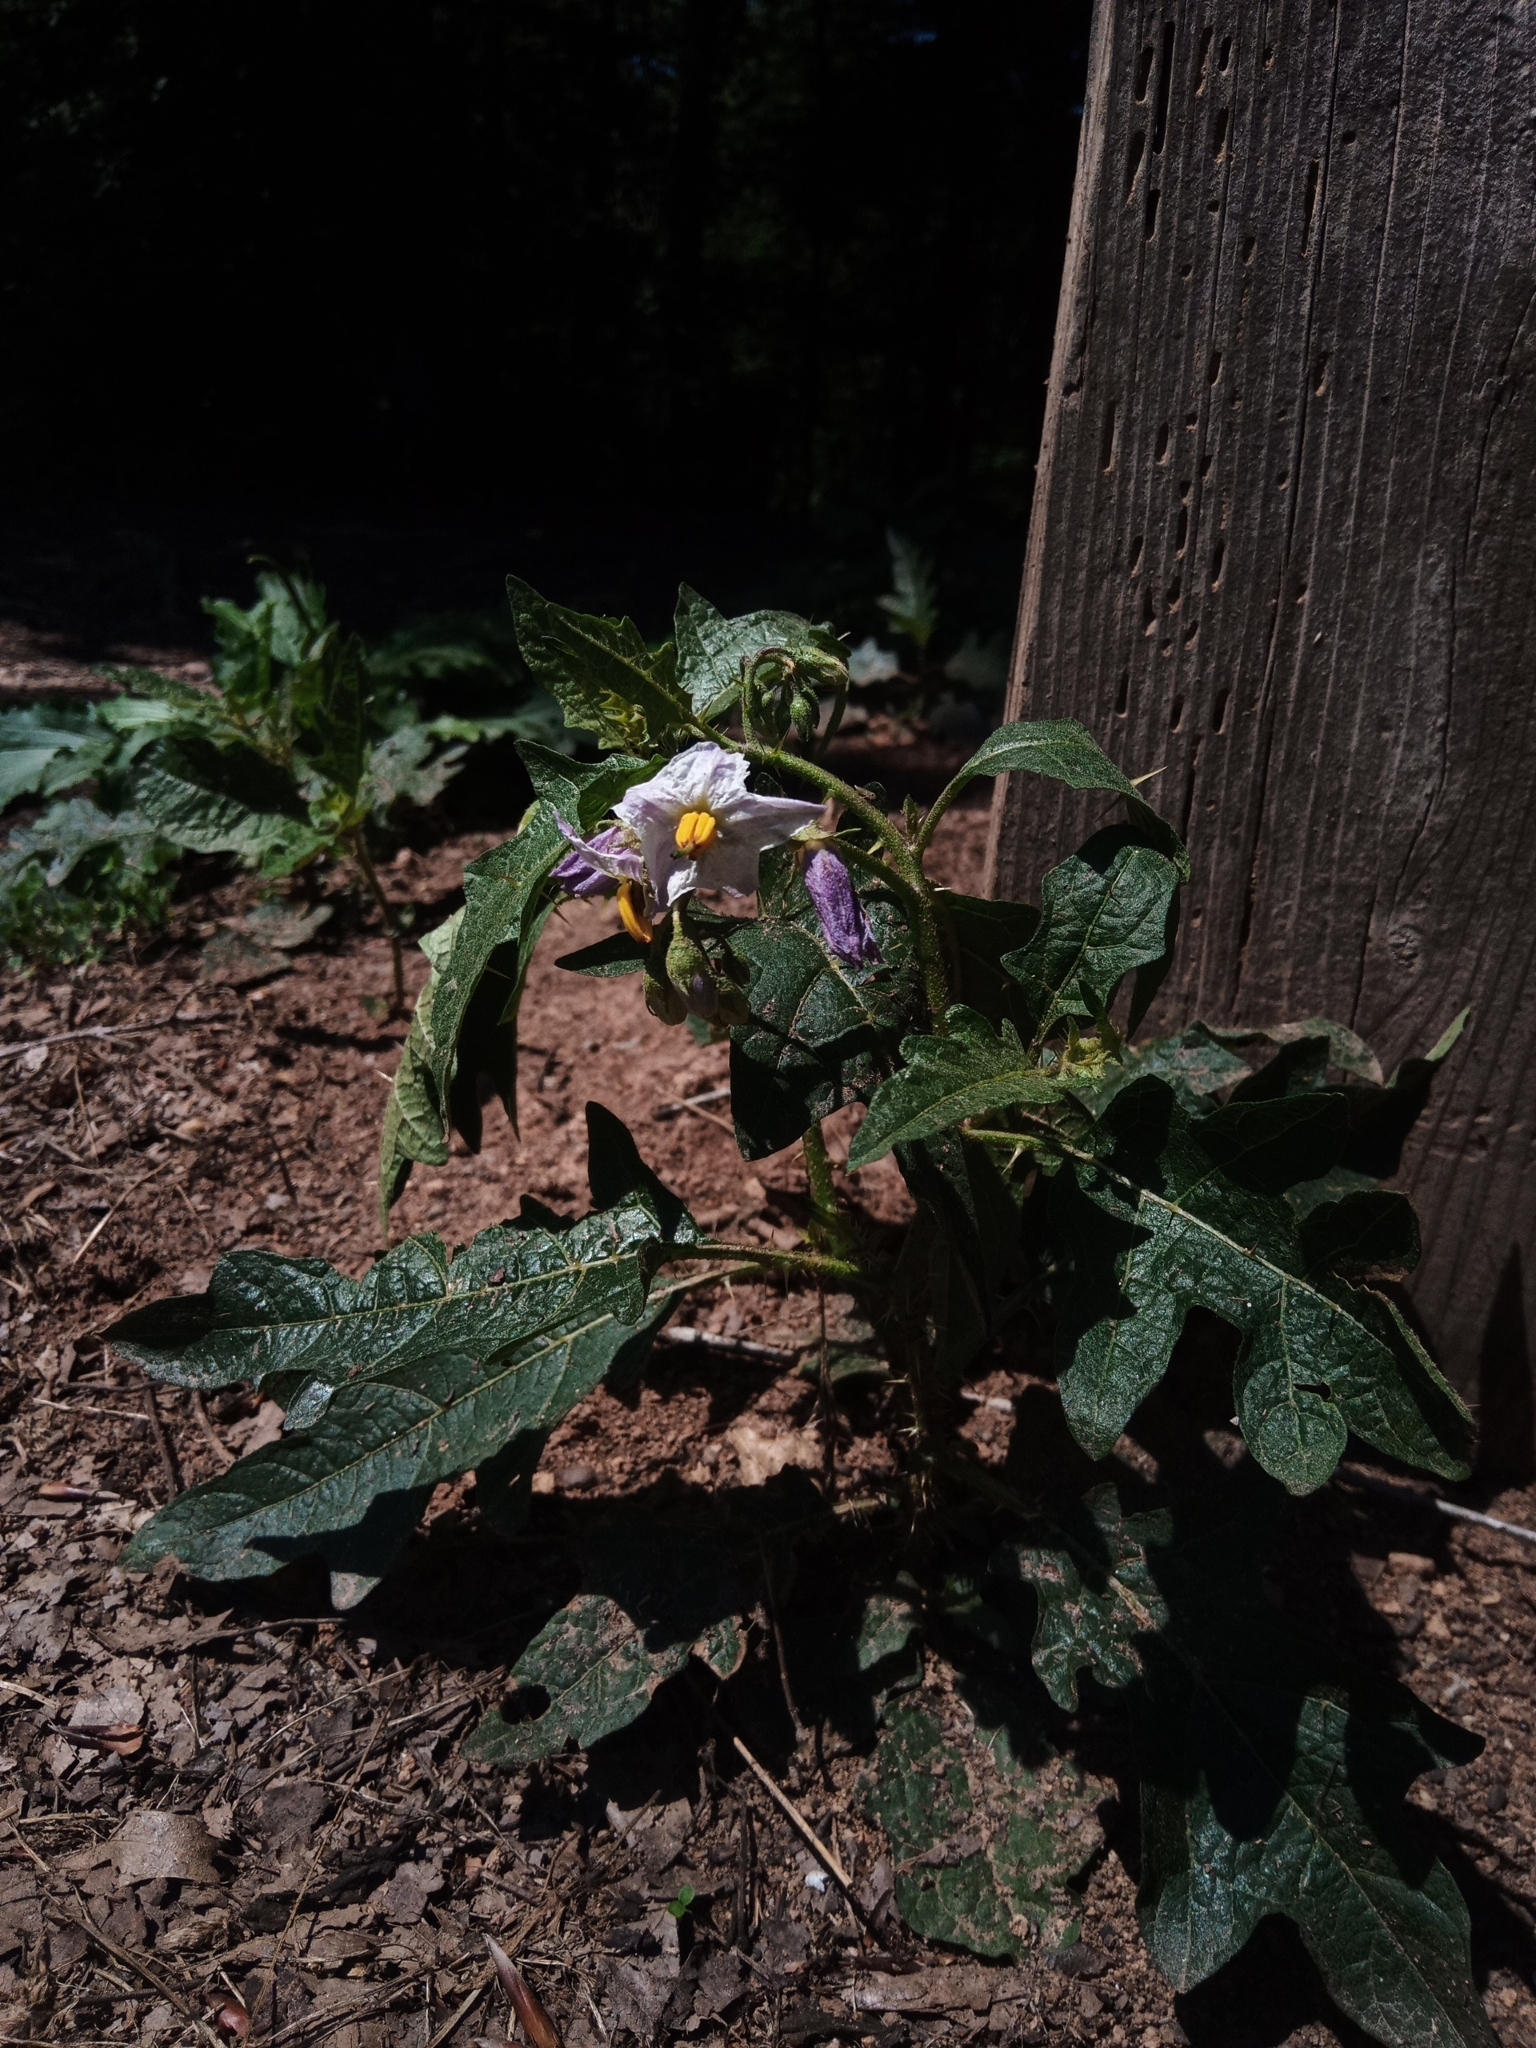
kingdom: Plantae
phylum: Tracheophyta
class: Magnoliopsida
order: Solanales
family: Solanaceae
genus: Solanum
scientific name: Solanum carolinense
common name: Horse-nettle
